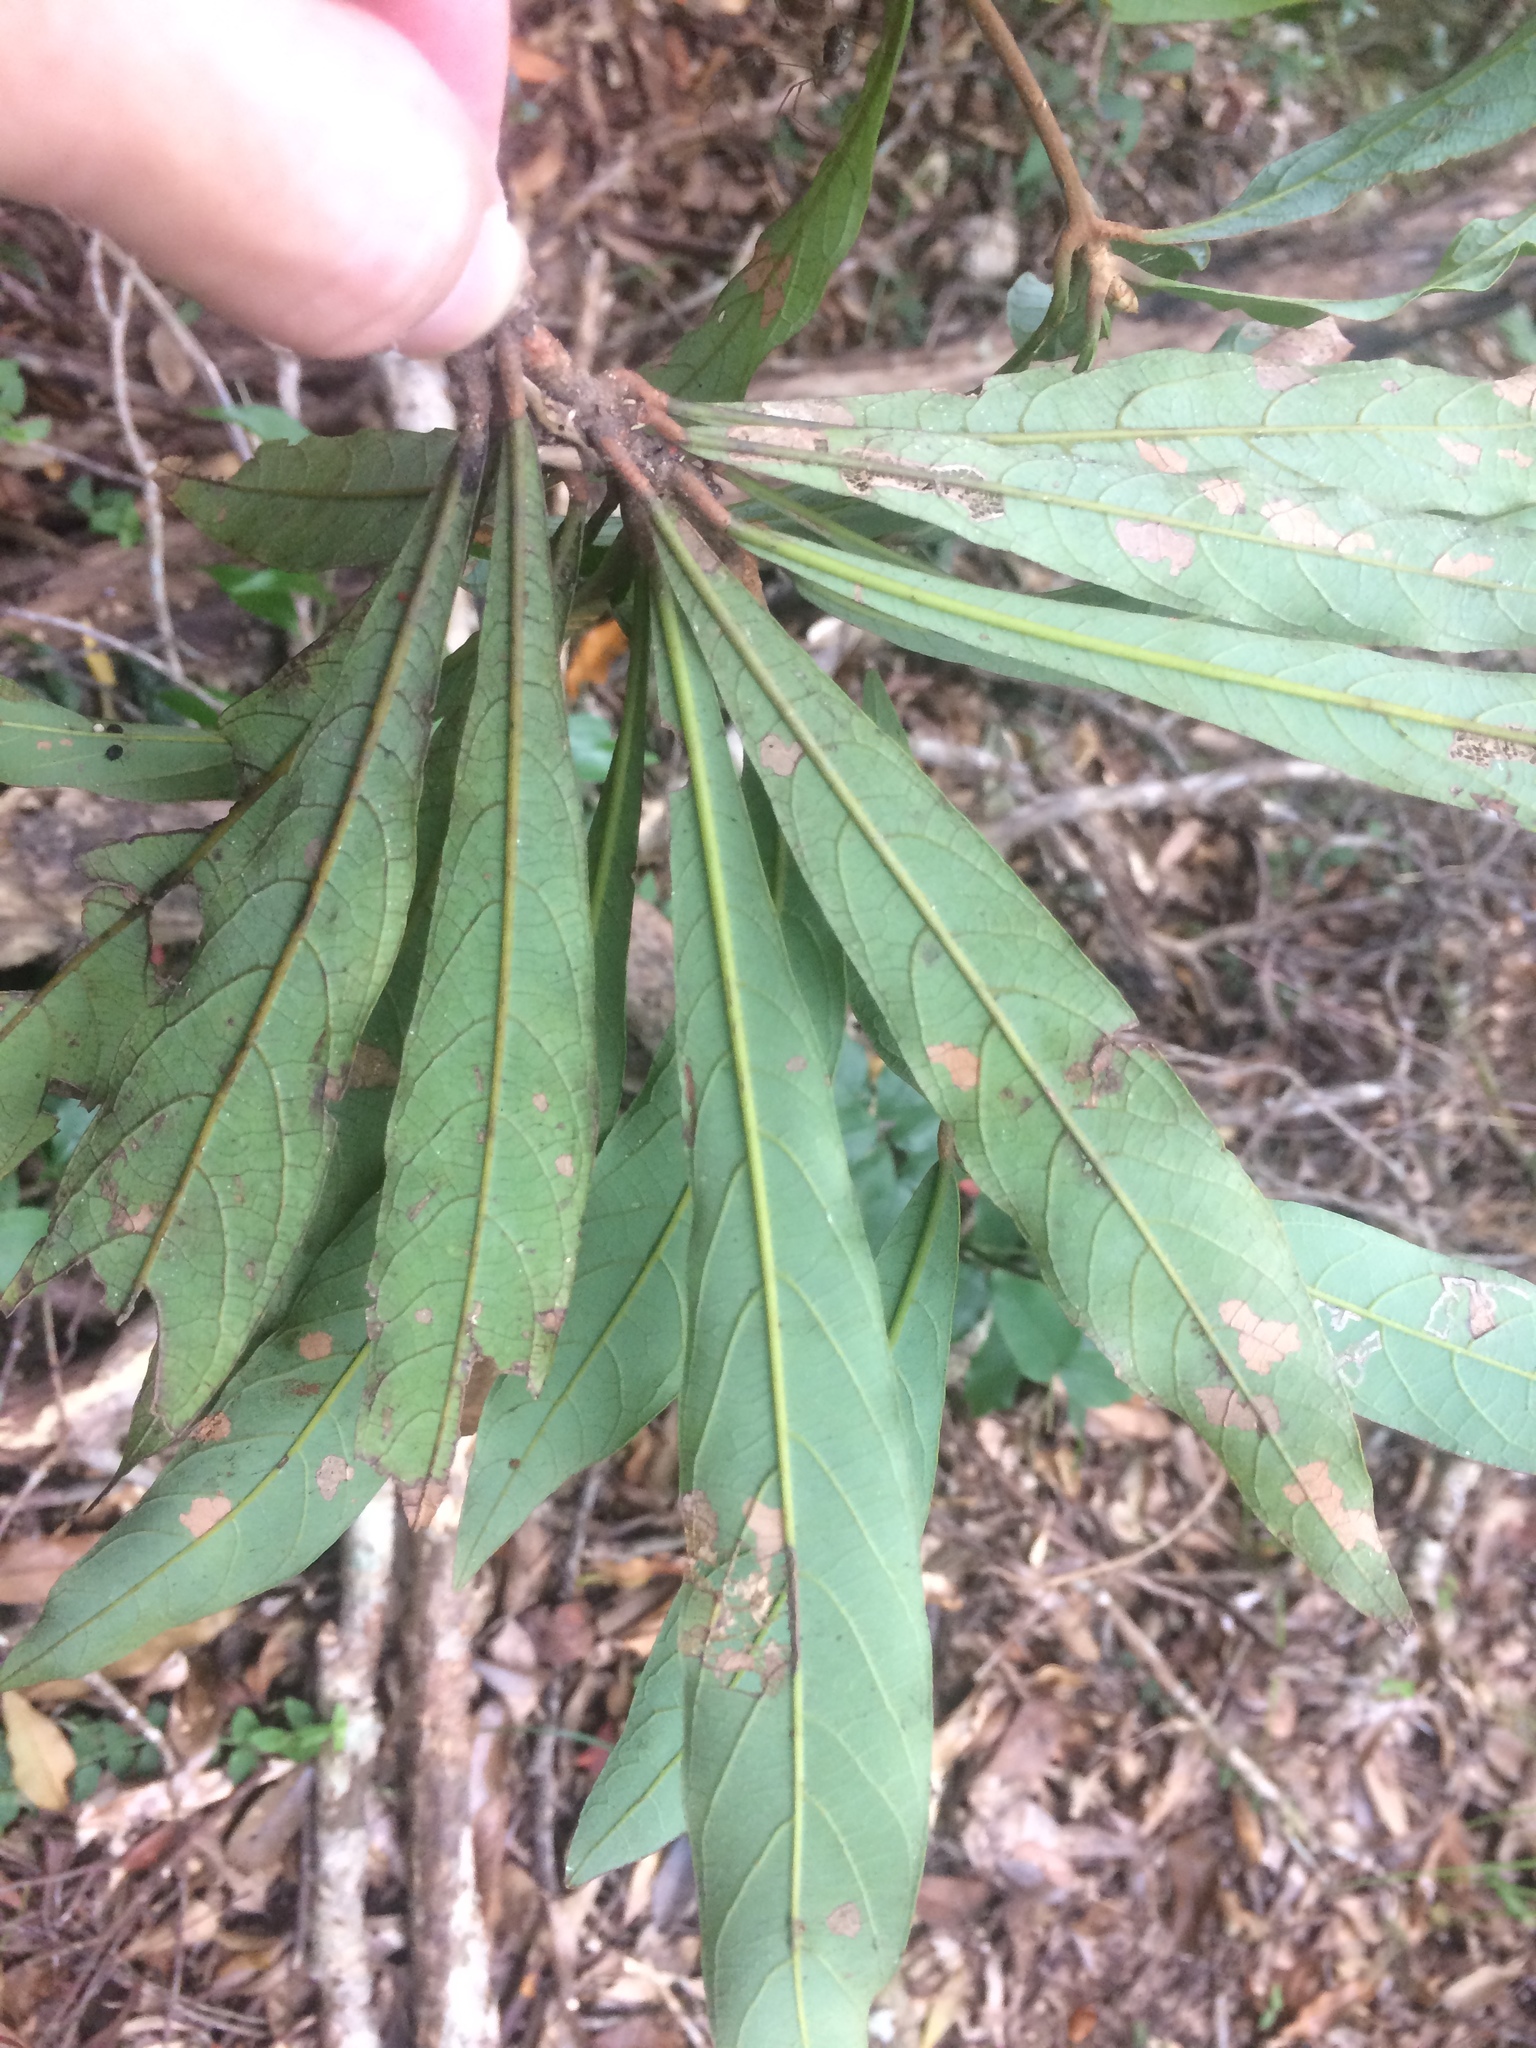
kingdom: Plantae
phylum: Tracheophyta
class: Magnoliopsida
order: Laurales
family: Lauraceae
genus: Litsea
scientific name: Litsea acutivena
